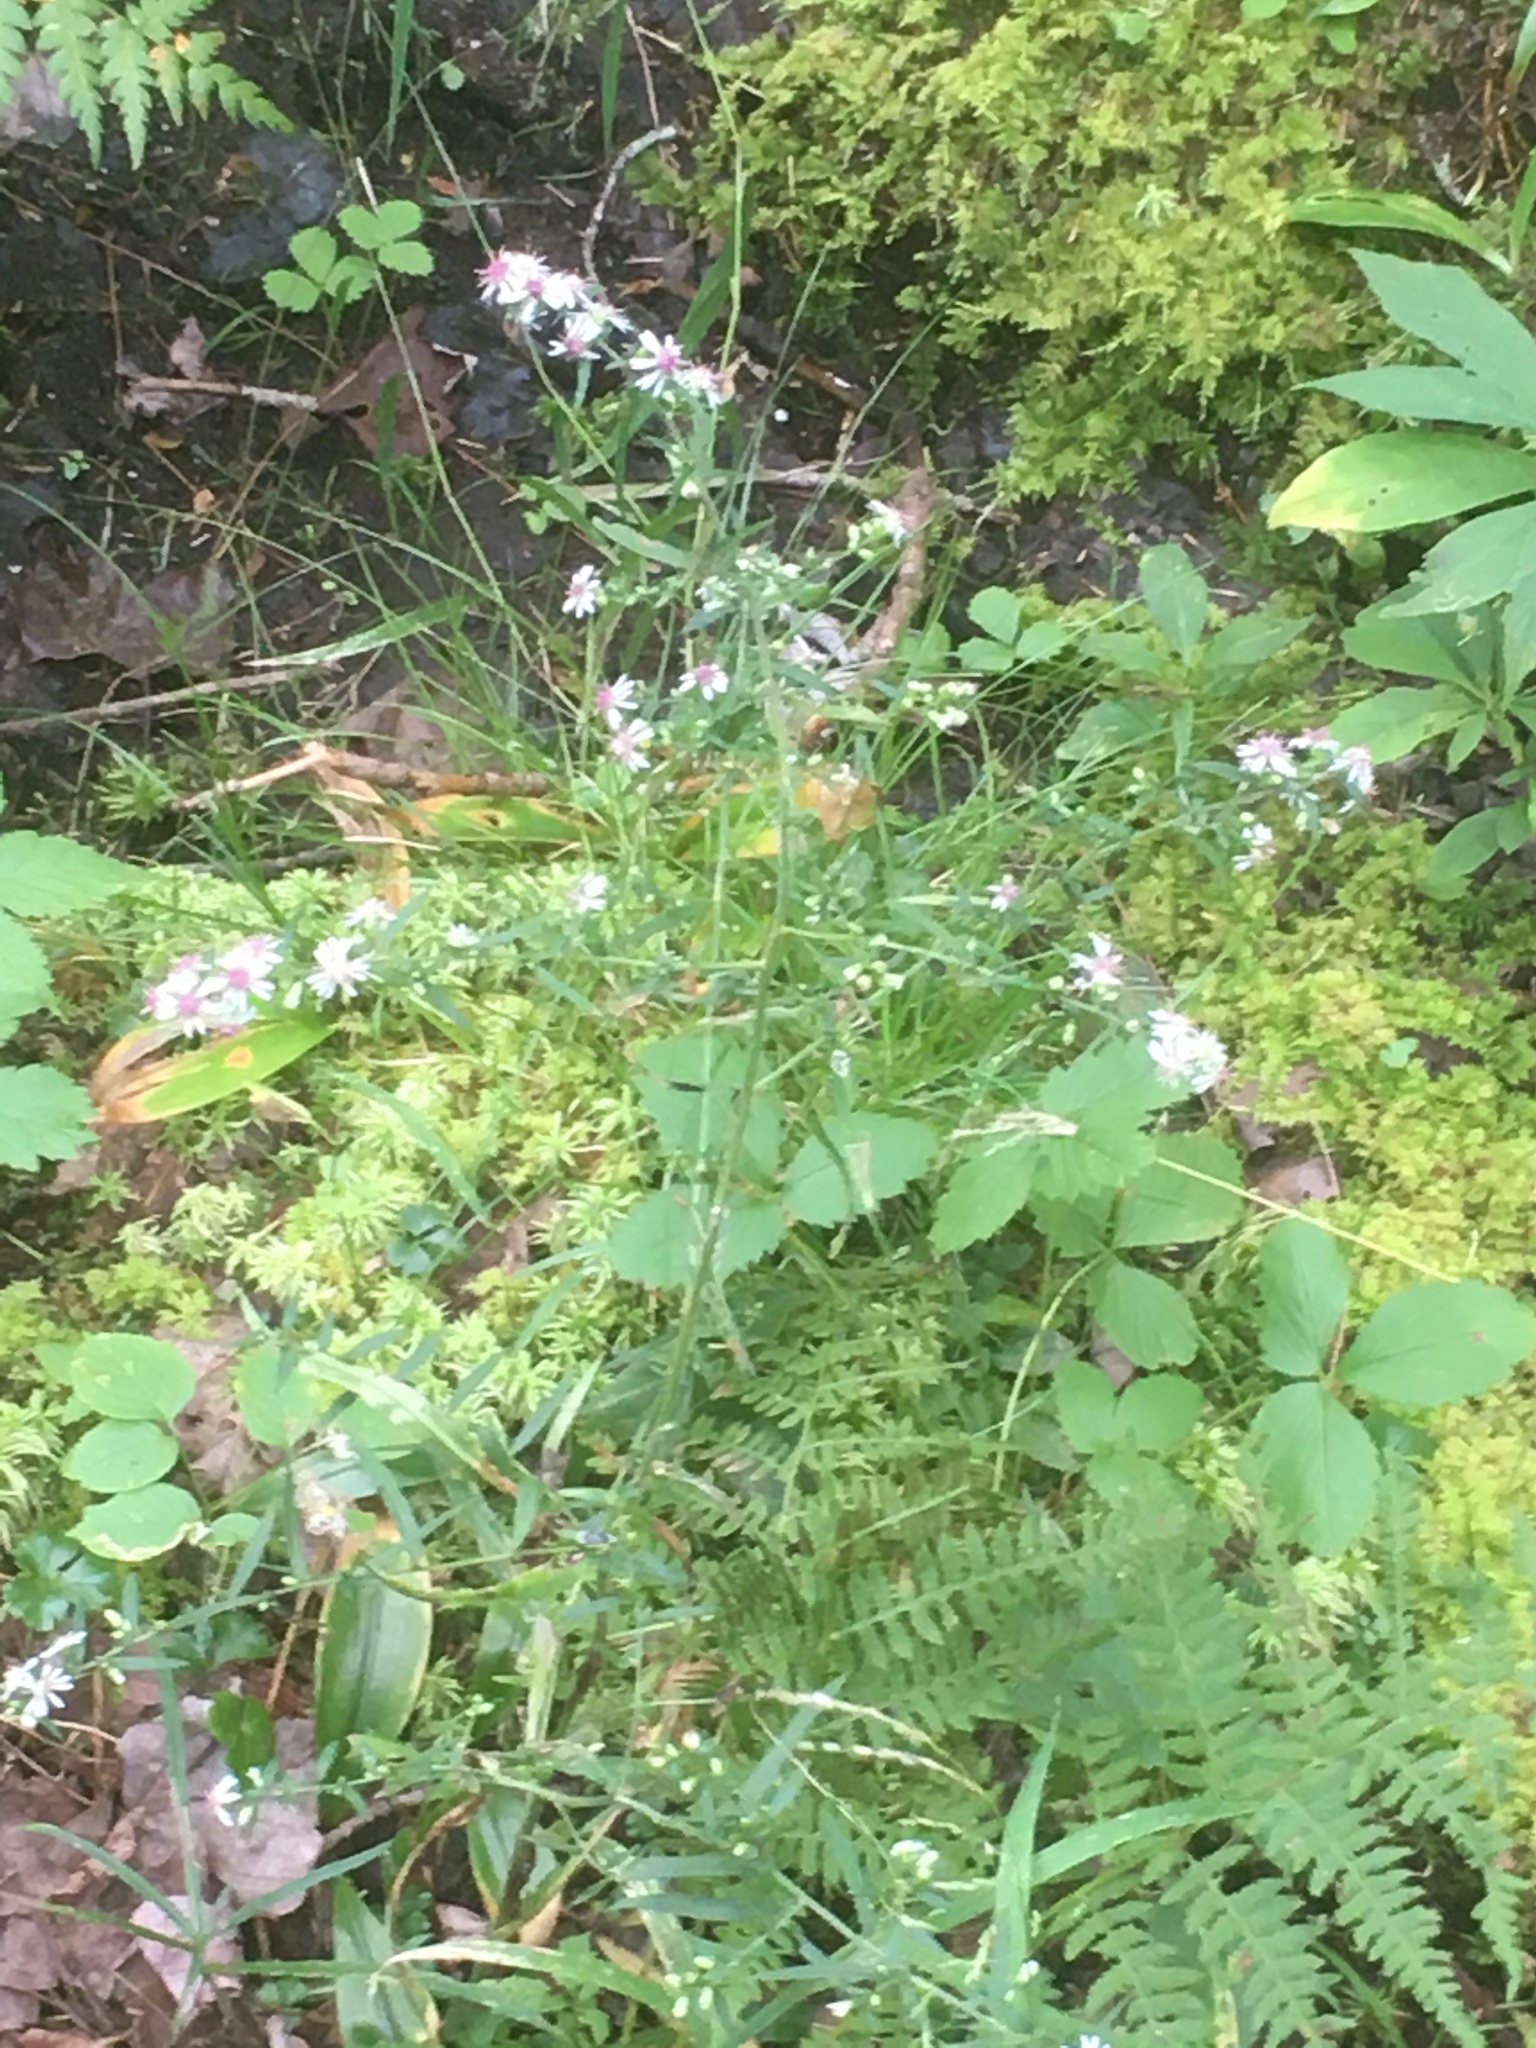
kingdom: Plantae
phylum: Tracheophyta
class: Magnoliopsida
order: Asterales
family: Asteraceae
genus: Symphyotrichum
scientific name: Symphyotrichum lateriflorum
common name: Calico aster
